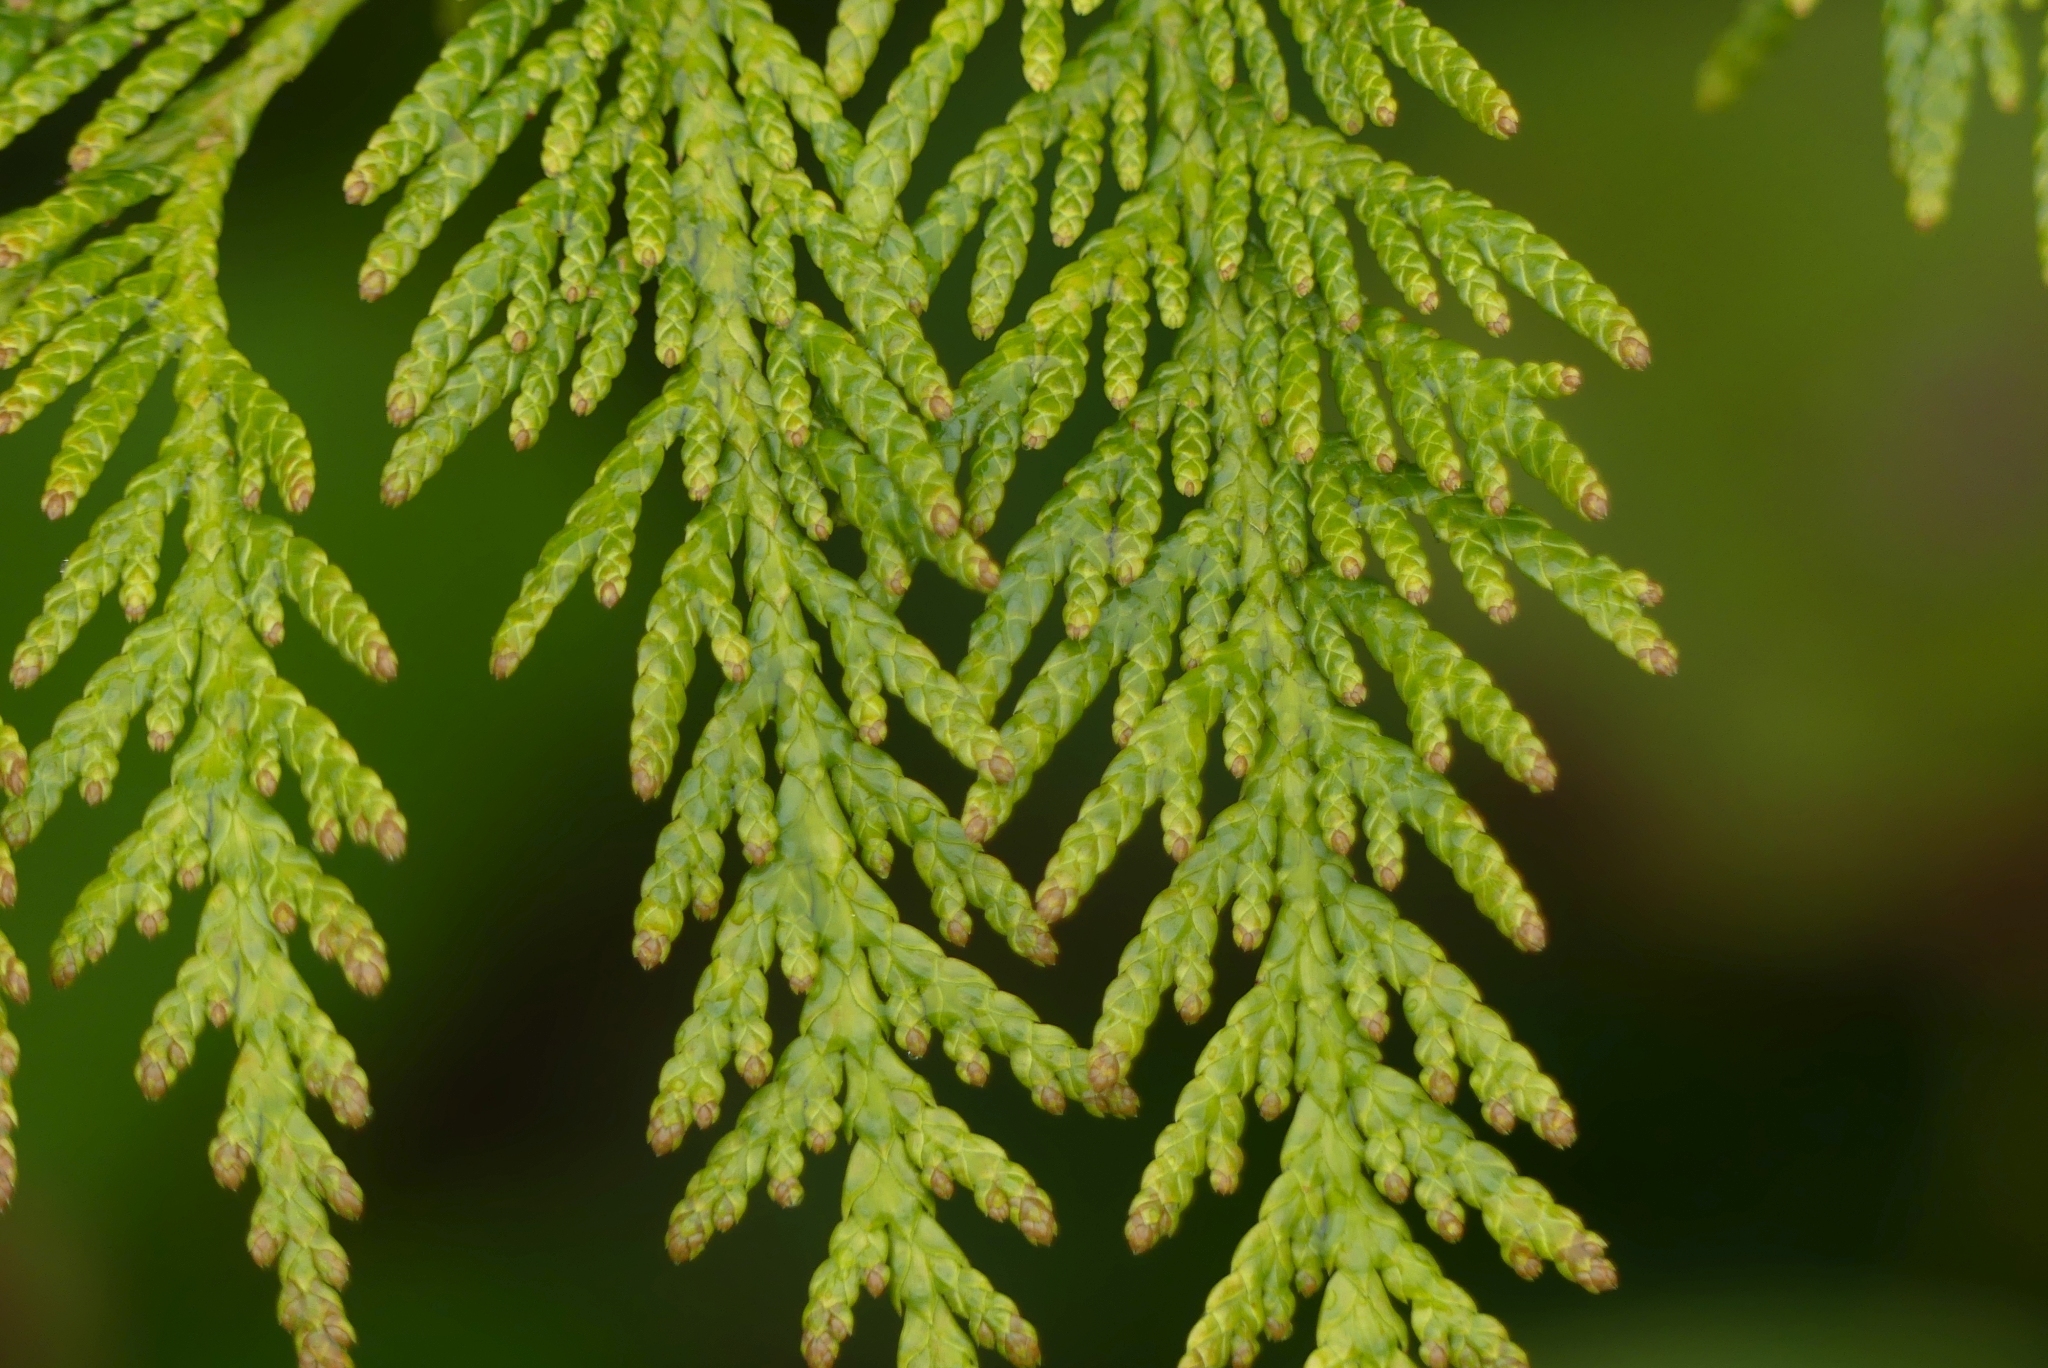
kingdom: Plantae
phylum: Tracheophyta
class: Pinopsida
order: Pinales
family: Cupressaceae
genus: Thuja
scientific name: Thuja plicata
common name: Western red-cedar
